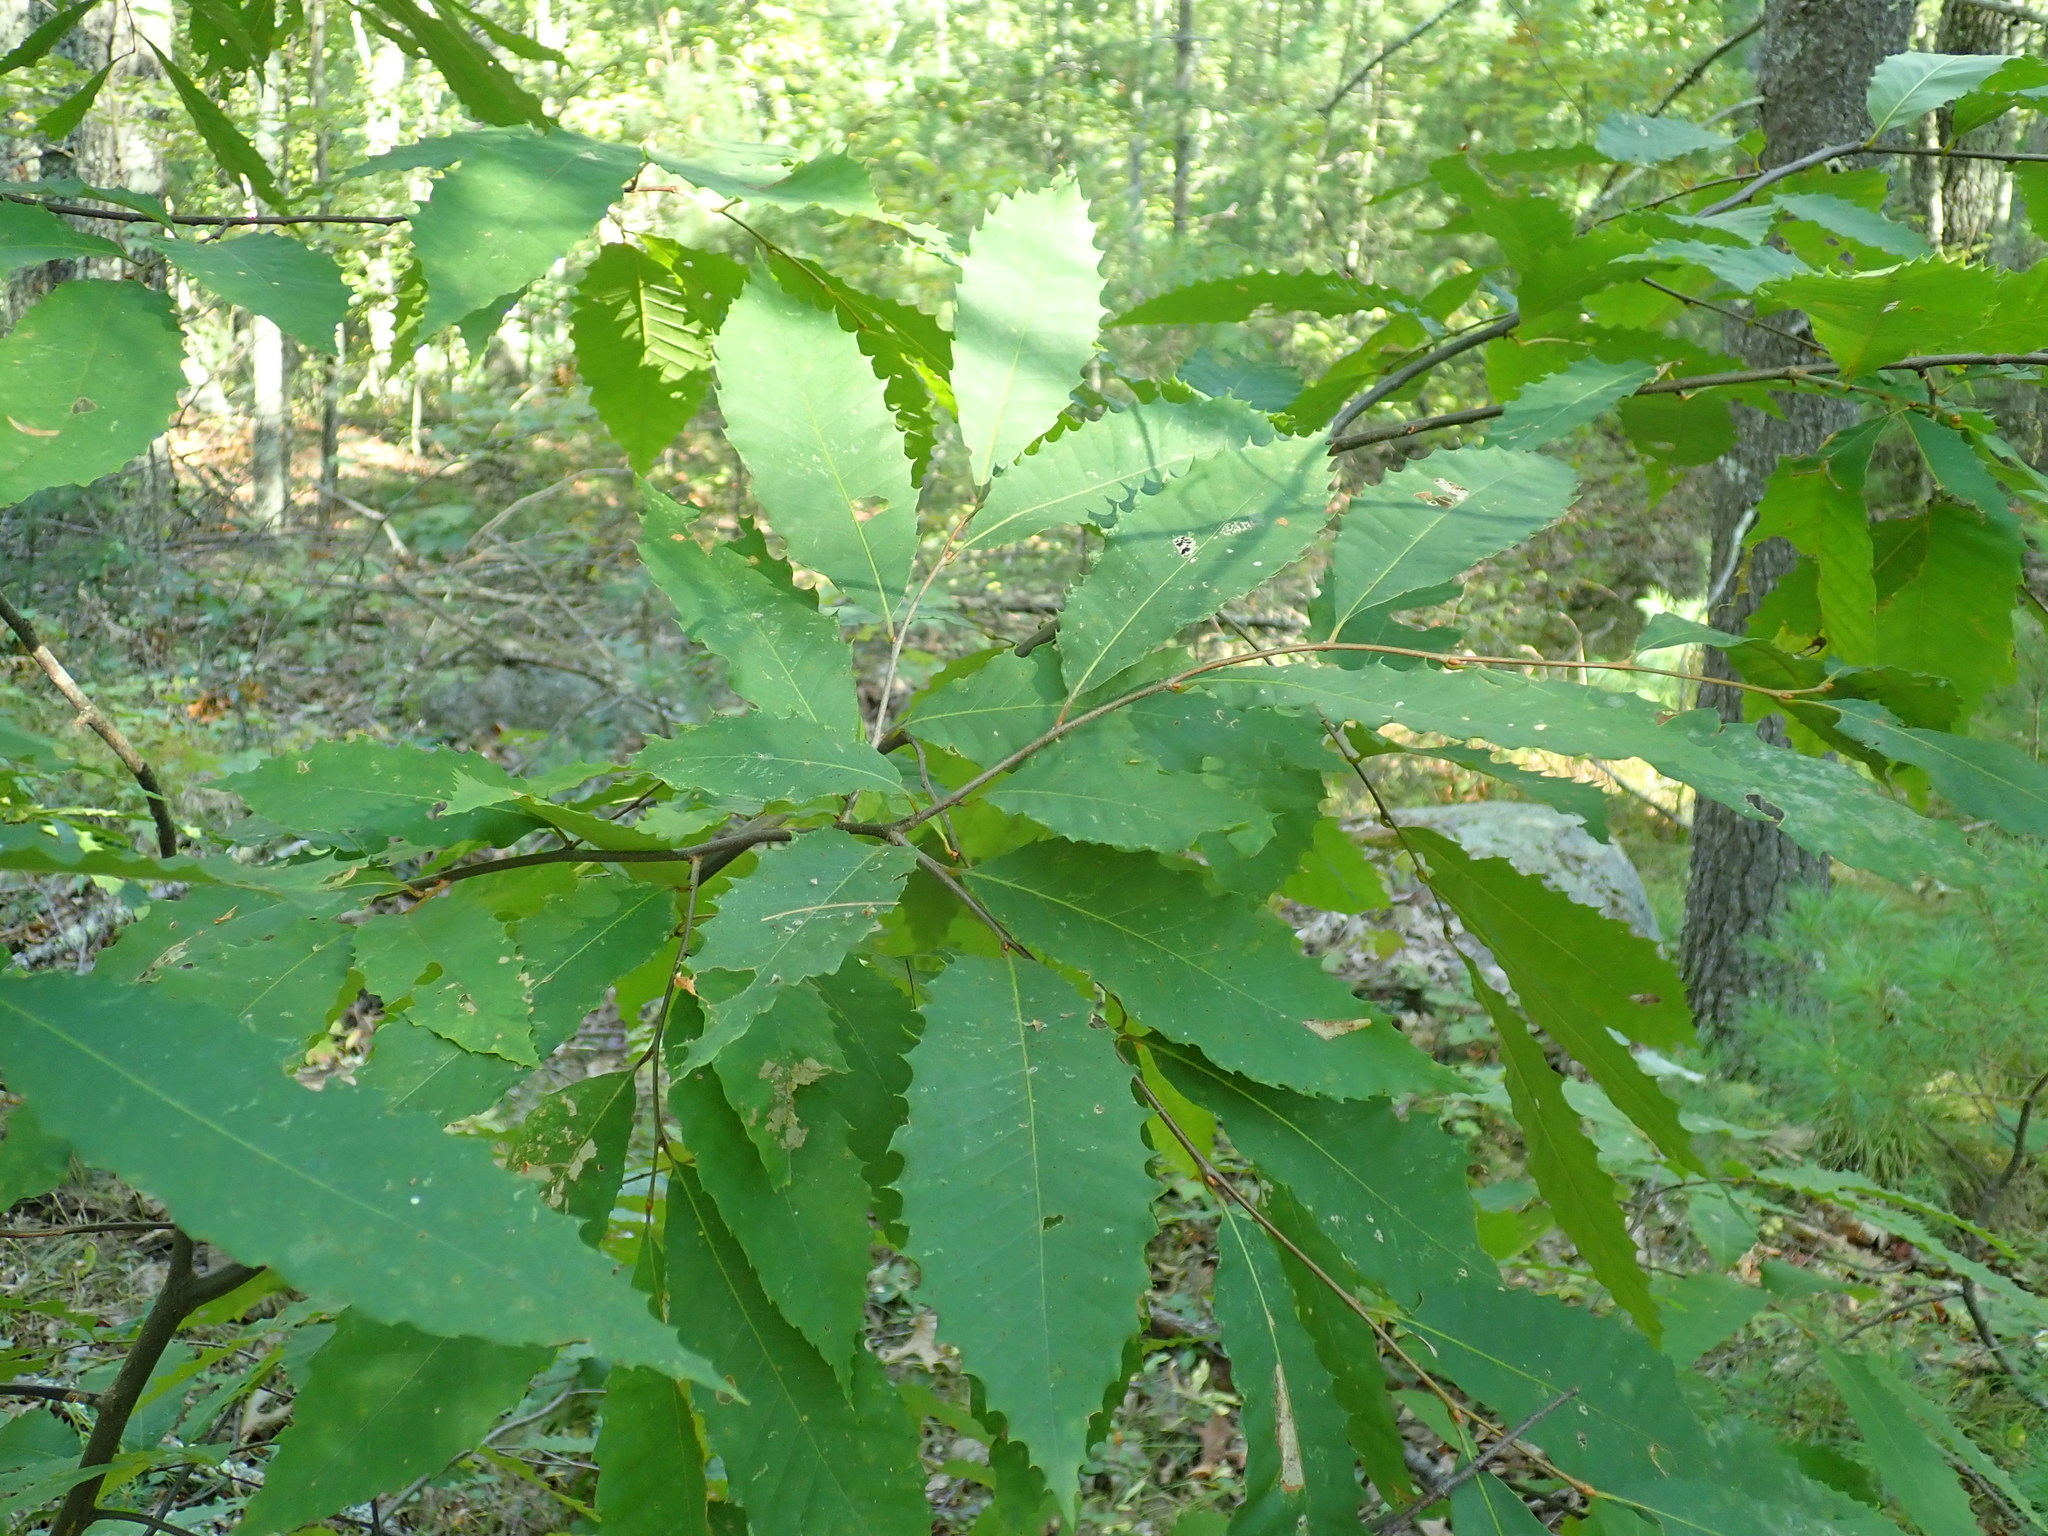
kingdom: Plantae
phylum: Tracheophyta
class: Magnoliopsida
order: Fagales
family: Fagaceae
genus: Castanea
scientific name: Castanea dentata
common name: American chestnut
